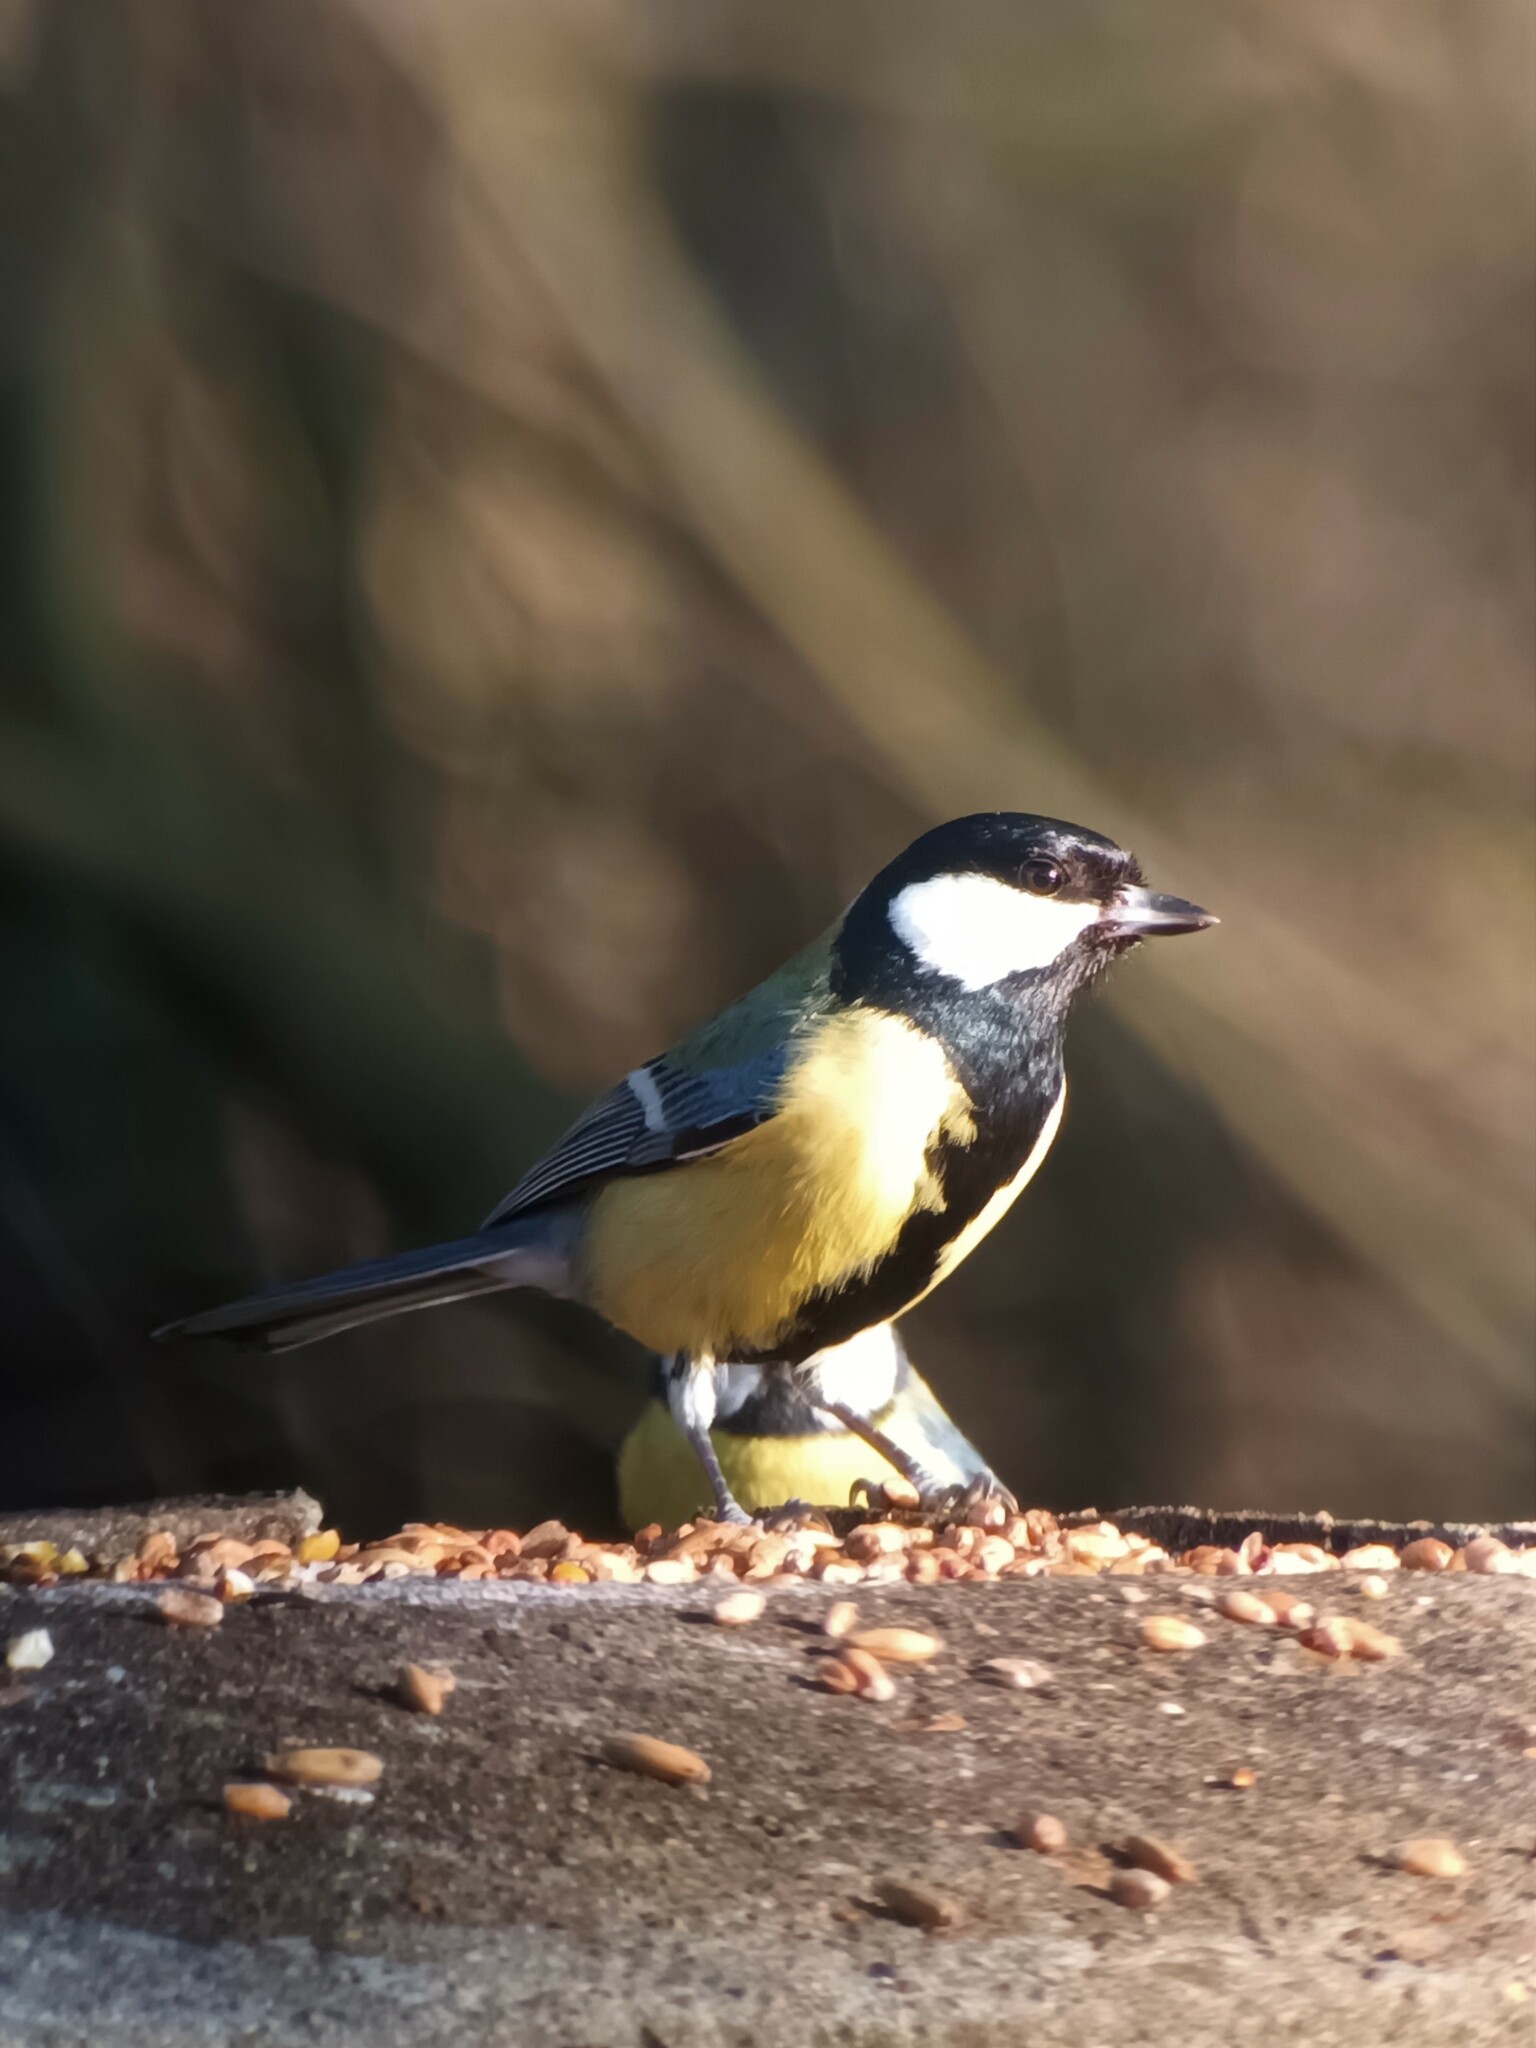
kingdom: Animalia
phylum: Chordata
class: Aves
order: Passeriformes
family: Paridae
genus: Parus
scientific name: Parus major
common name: Great tit
